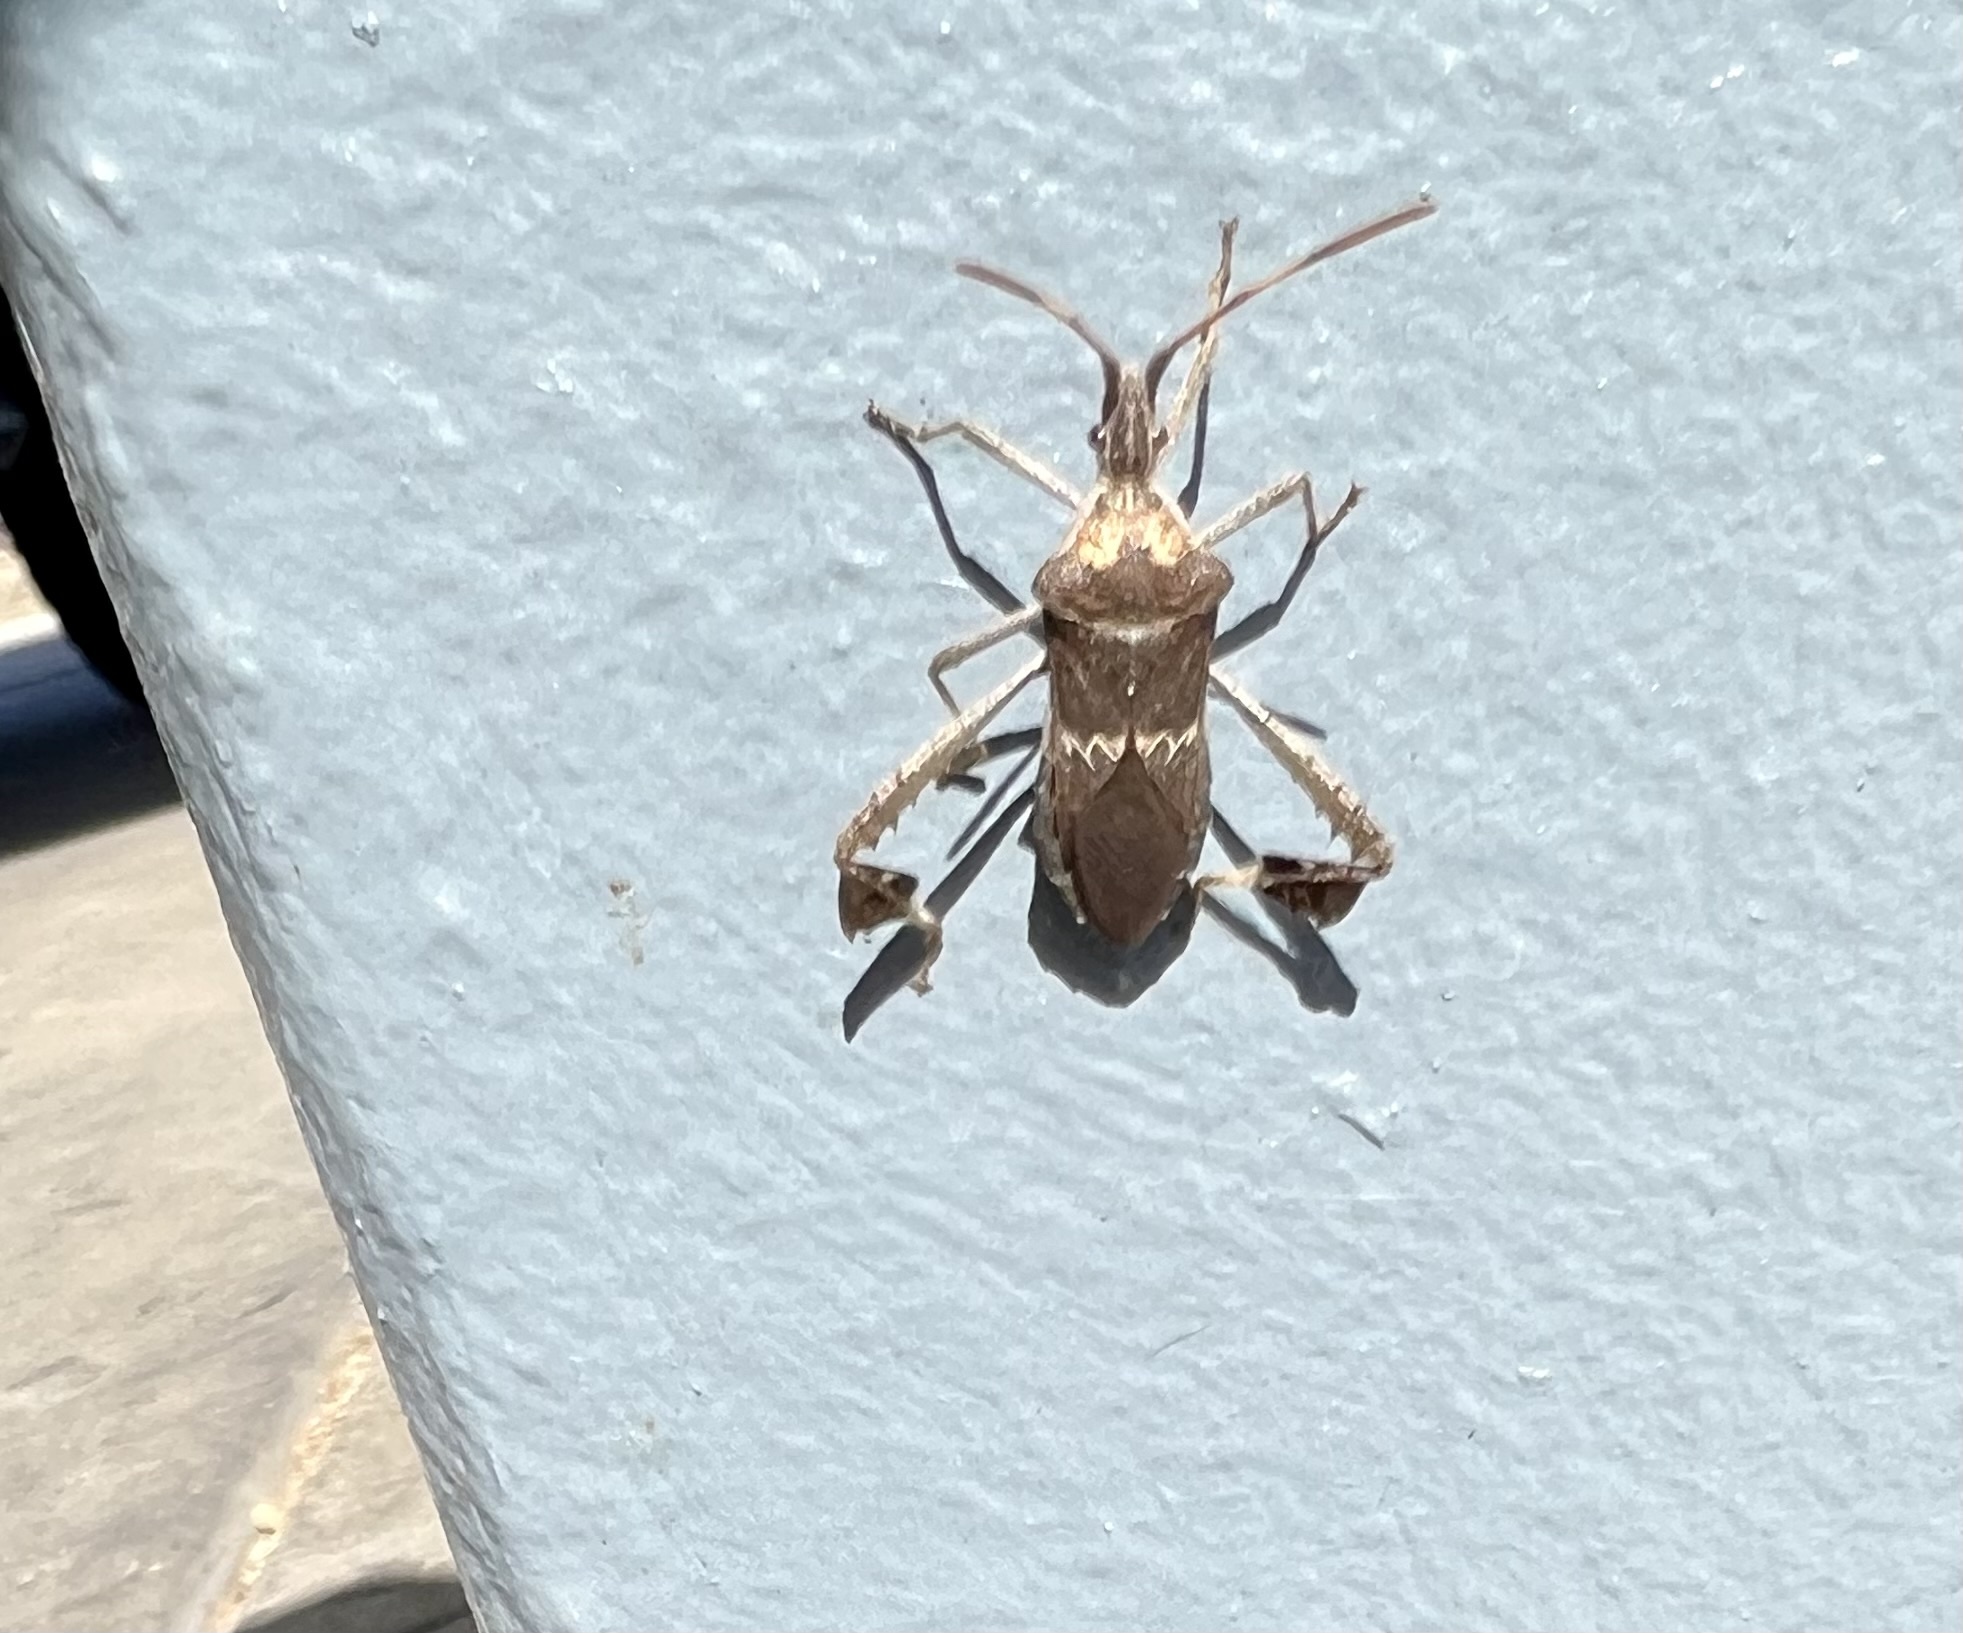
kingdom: Animalia
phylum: Arthropoda
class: Insecta
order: Hemiptera
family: Coreidae
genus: Leptoglossus
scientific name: Leptoglossus zonatus
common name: Large-legged bug
